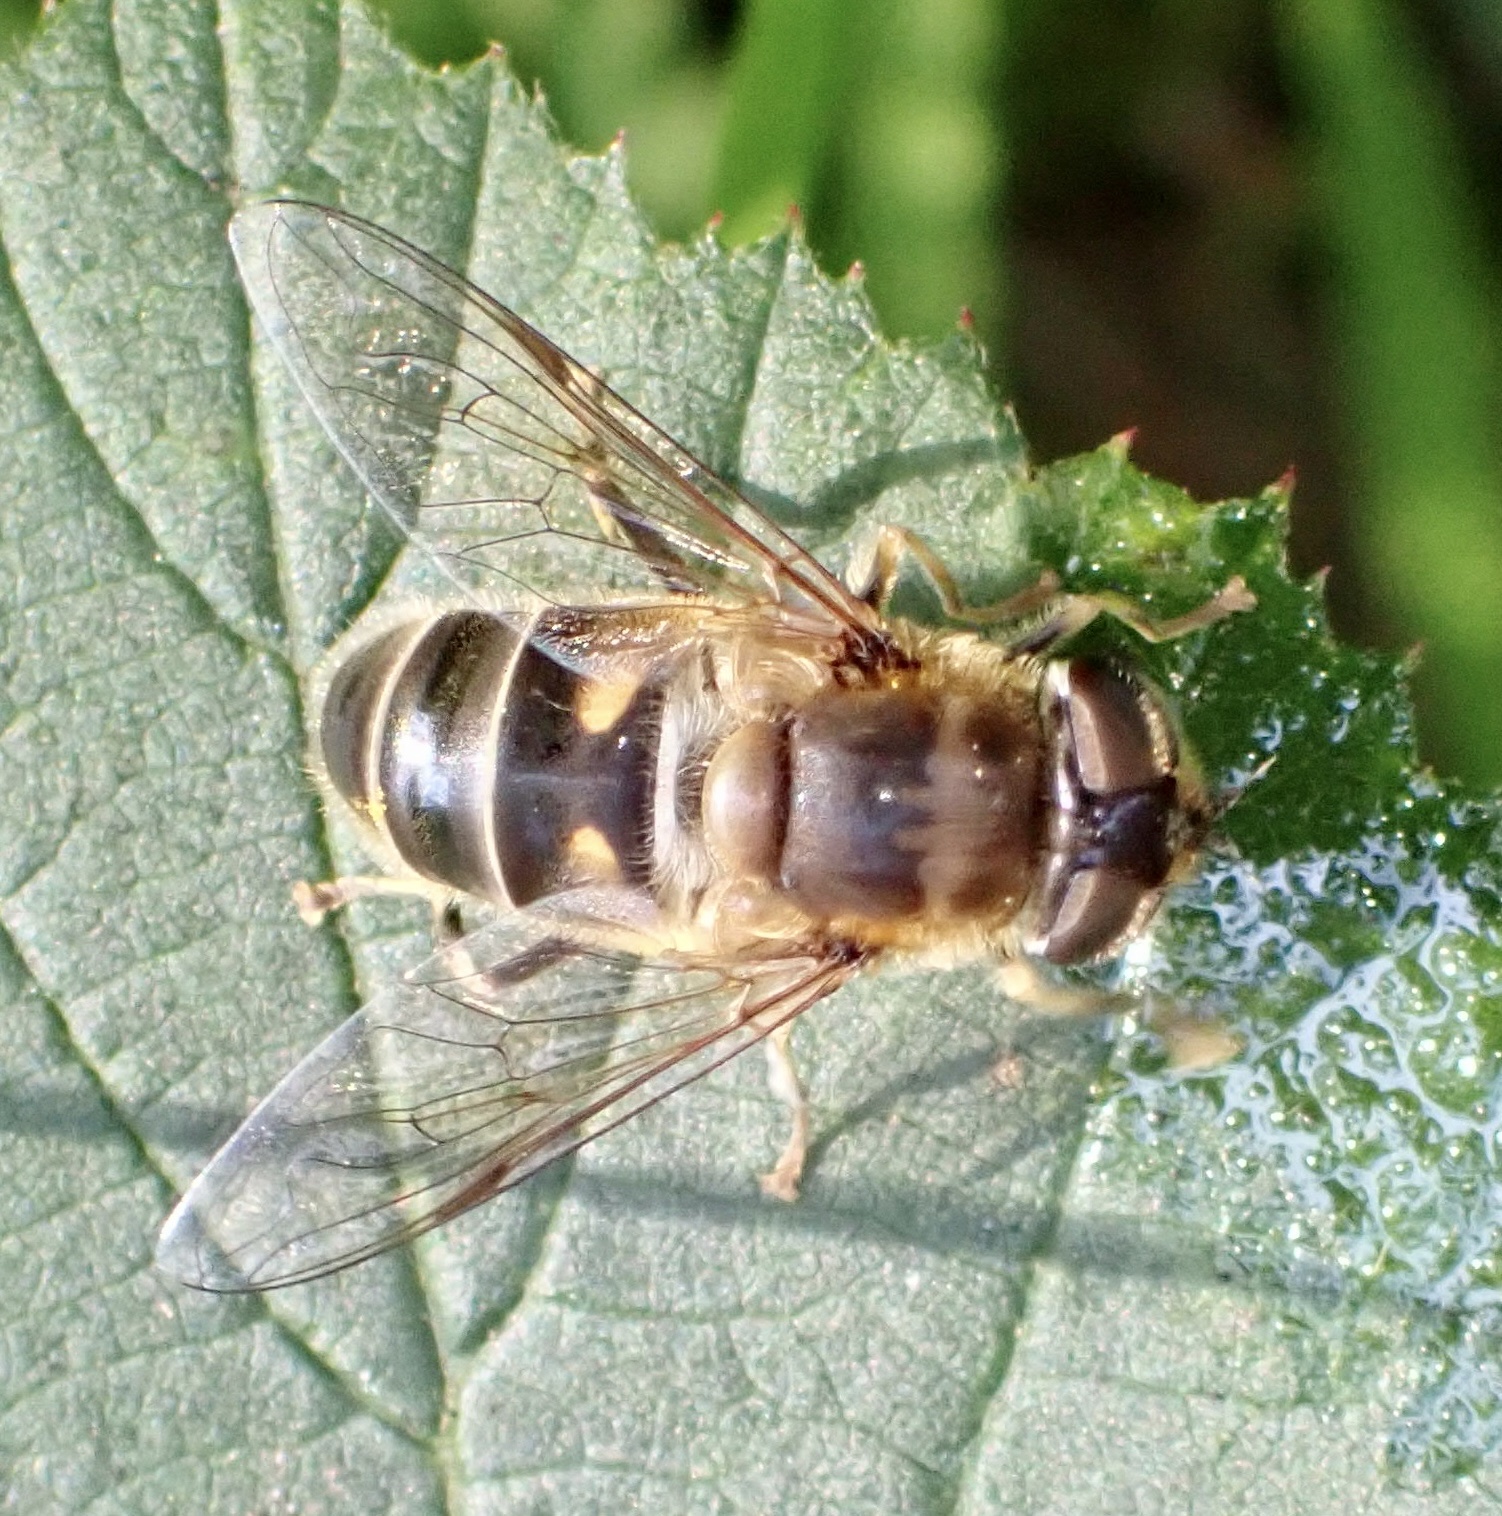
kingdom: Animalia
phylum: Arthropoda
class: Insecta
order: Diptera
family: Syrphidae
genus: Eristalis
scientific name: Eristalis pertinax
